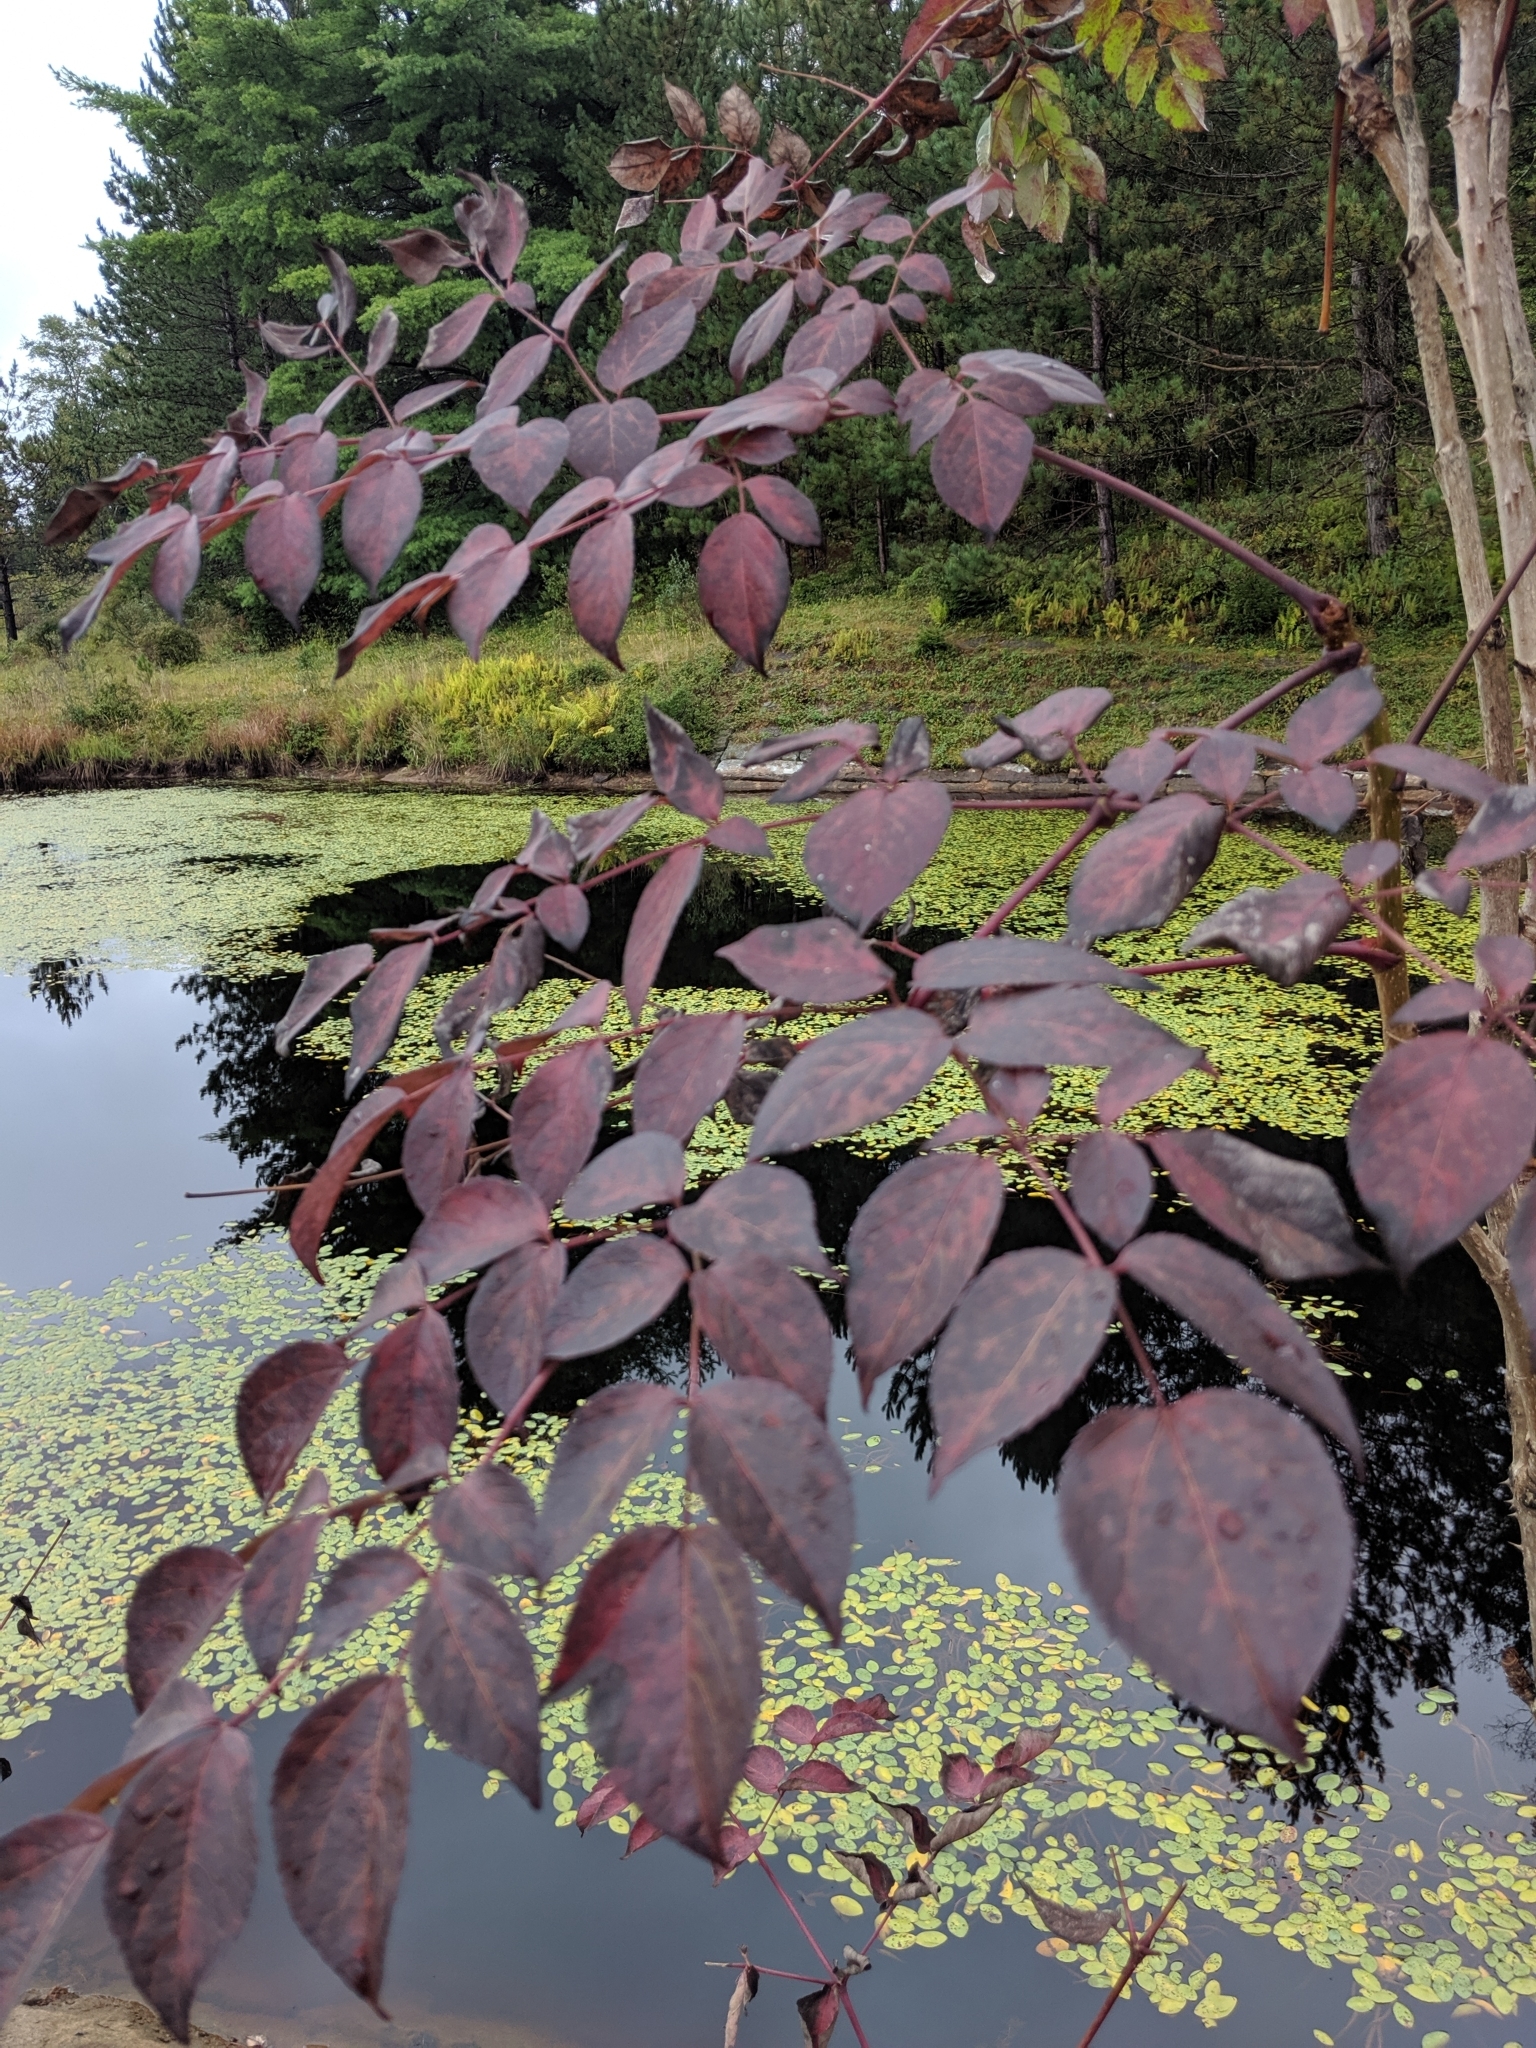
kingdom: Plantae
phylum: Tracheophyta
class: Magnoliopsida
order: Apiales
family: Araliaceae
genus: Aralia
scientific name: Aralia spinosa
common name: Hercules'-club
